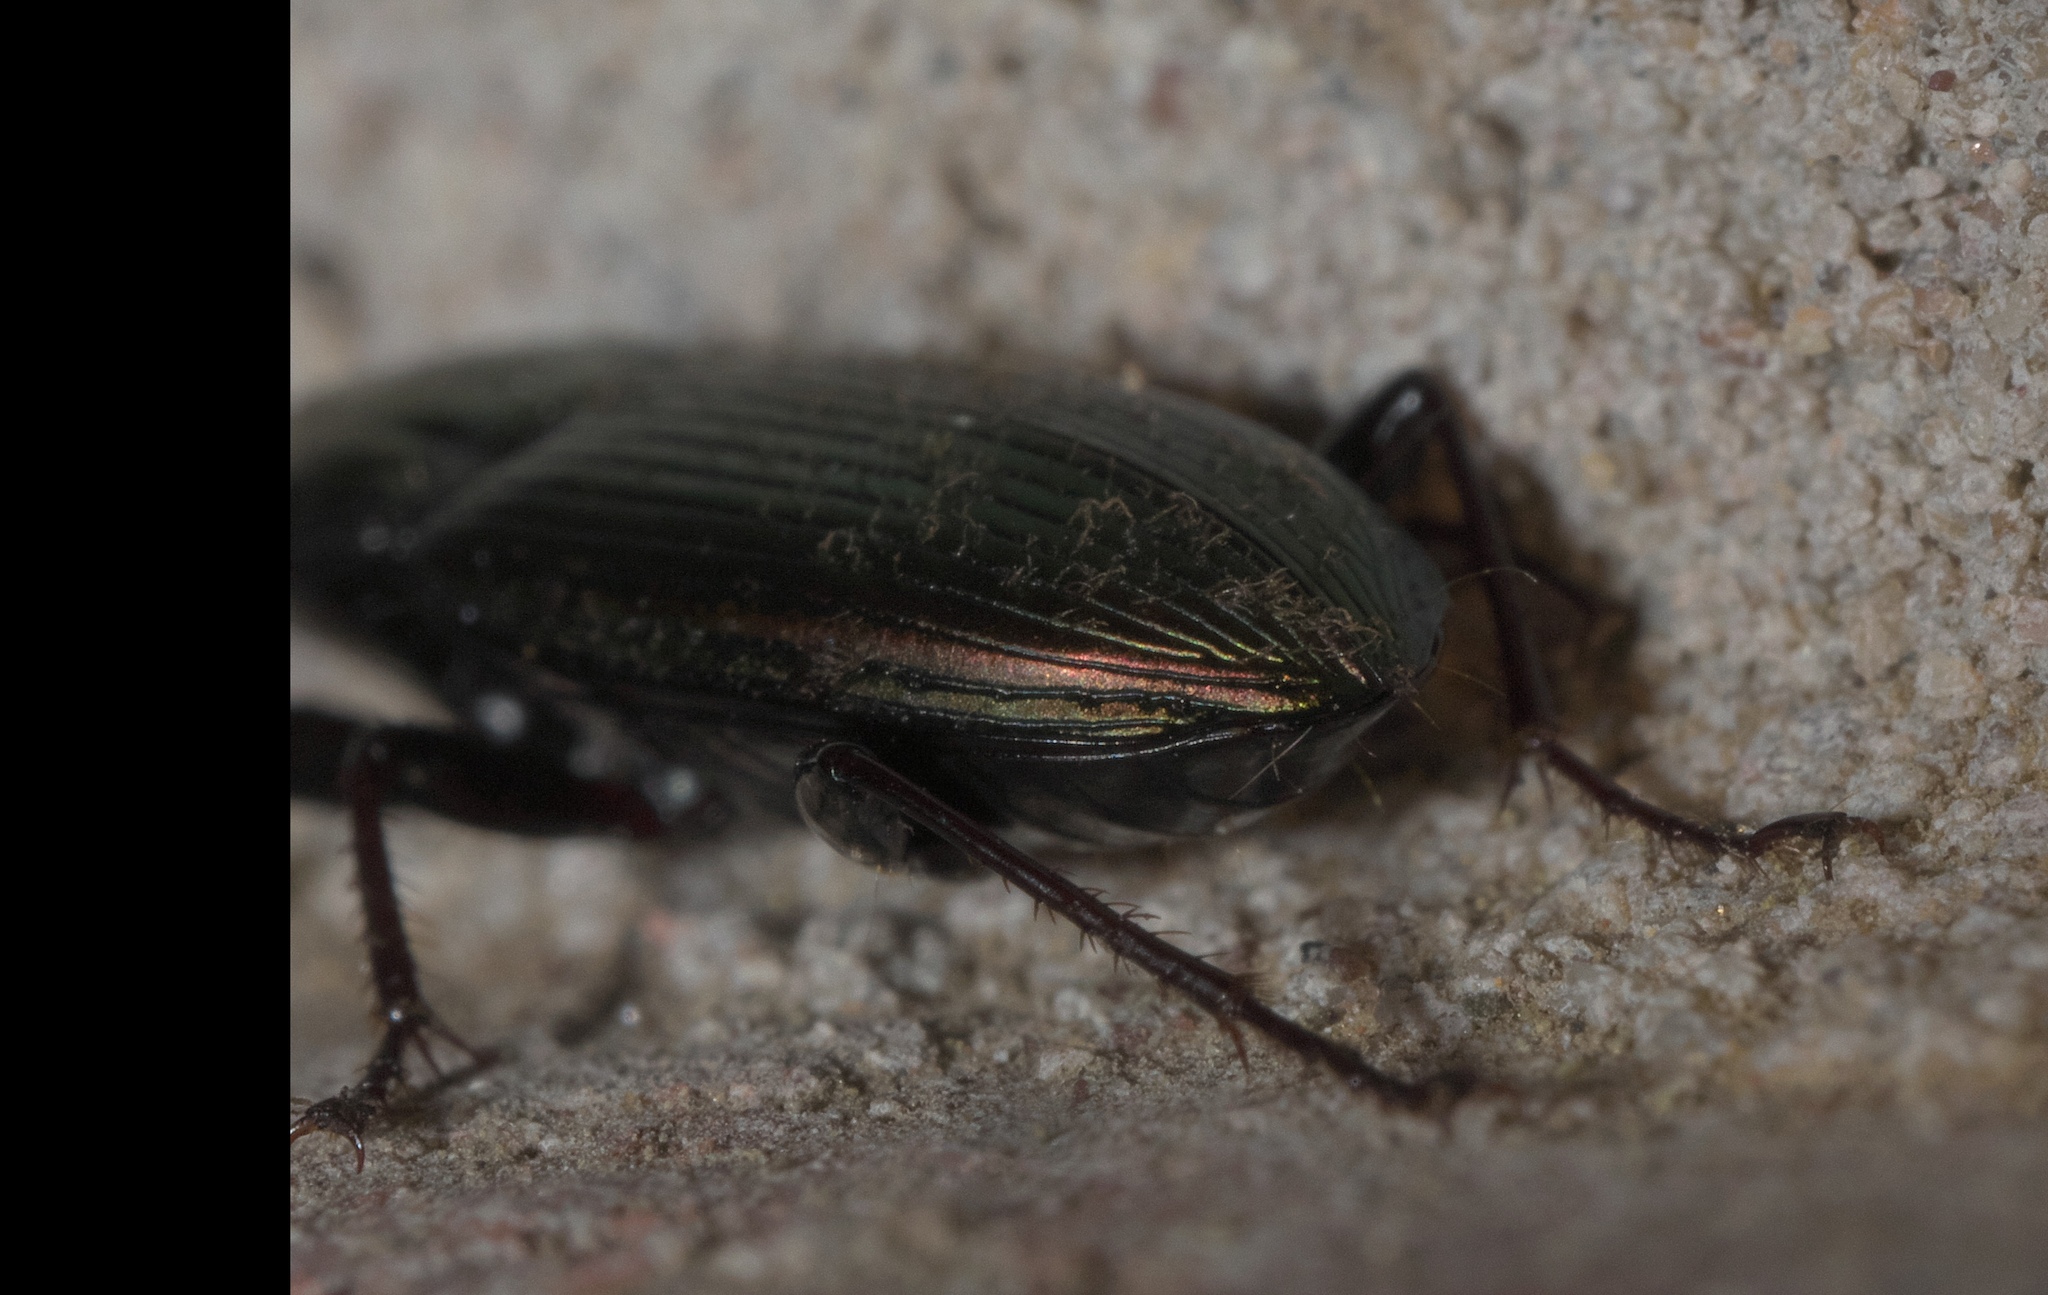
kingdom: Animalia
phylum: Arthropoda
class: Insecta
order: Coleoptera
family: Carabidae
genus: Poecilus
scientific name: Poecilus chalcites
